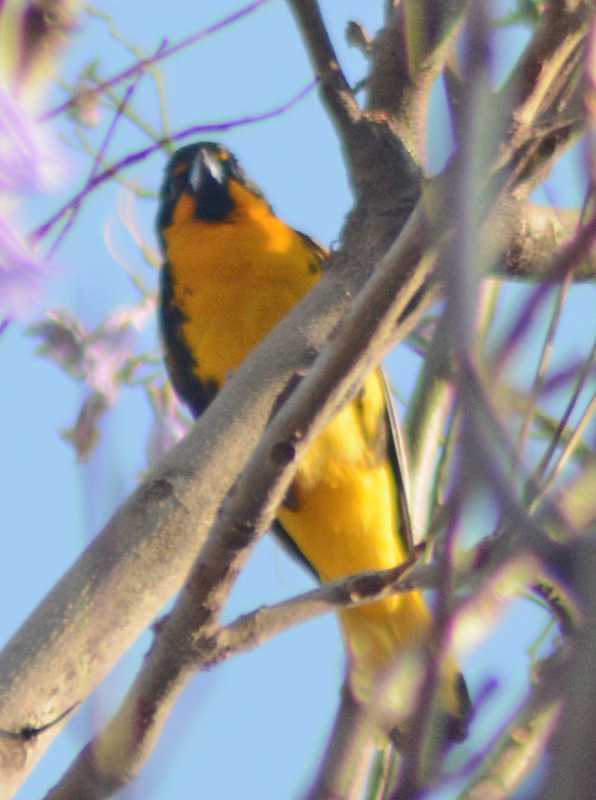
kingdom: Animalia
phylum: Chordata
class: Aves
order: Passeriformes
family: Icteridae
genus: Icterus
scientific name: Icterus abeillei
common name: Black-backed oriole
